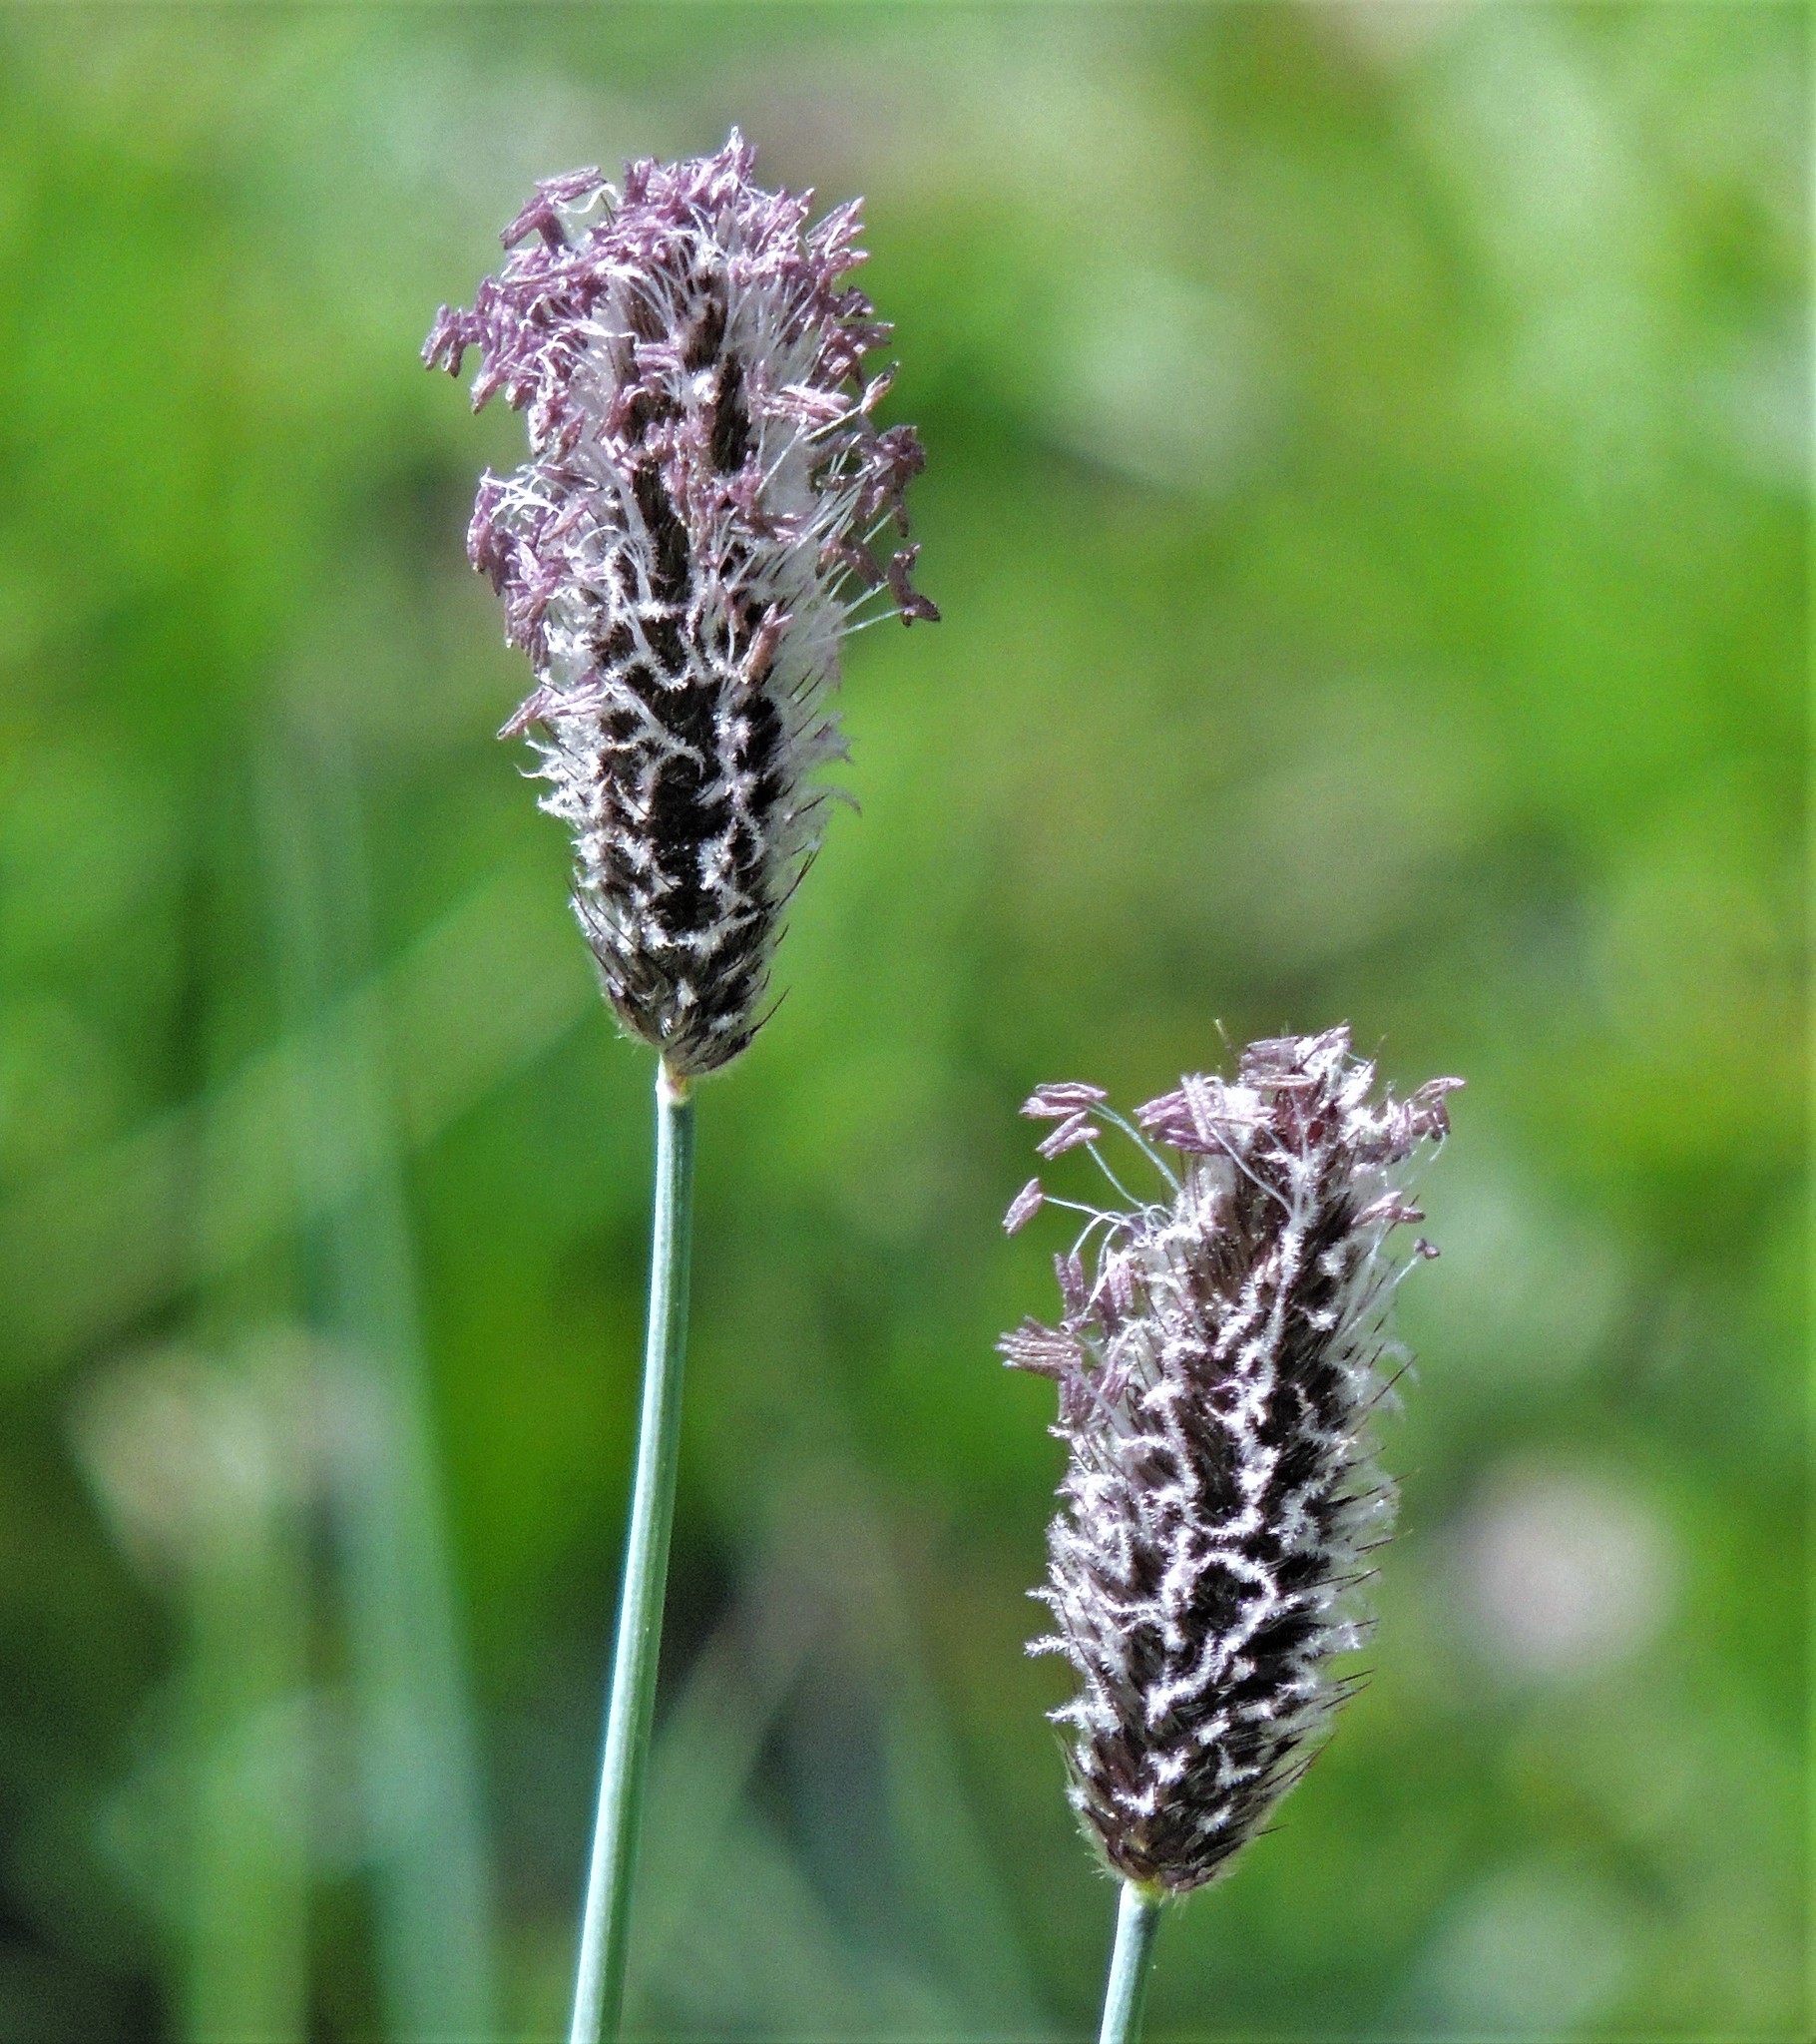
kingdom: Plantae
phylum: Tracheophyta
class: Liliopsida
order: Poales
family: Poaceae
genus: Phleum
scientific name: Phleum alpinum
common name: Alpine cat's-tail
